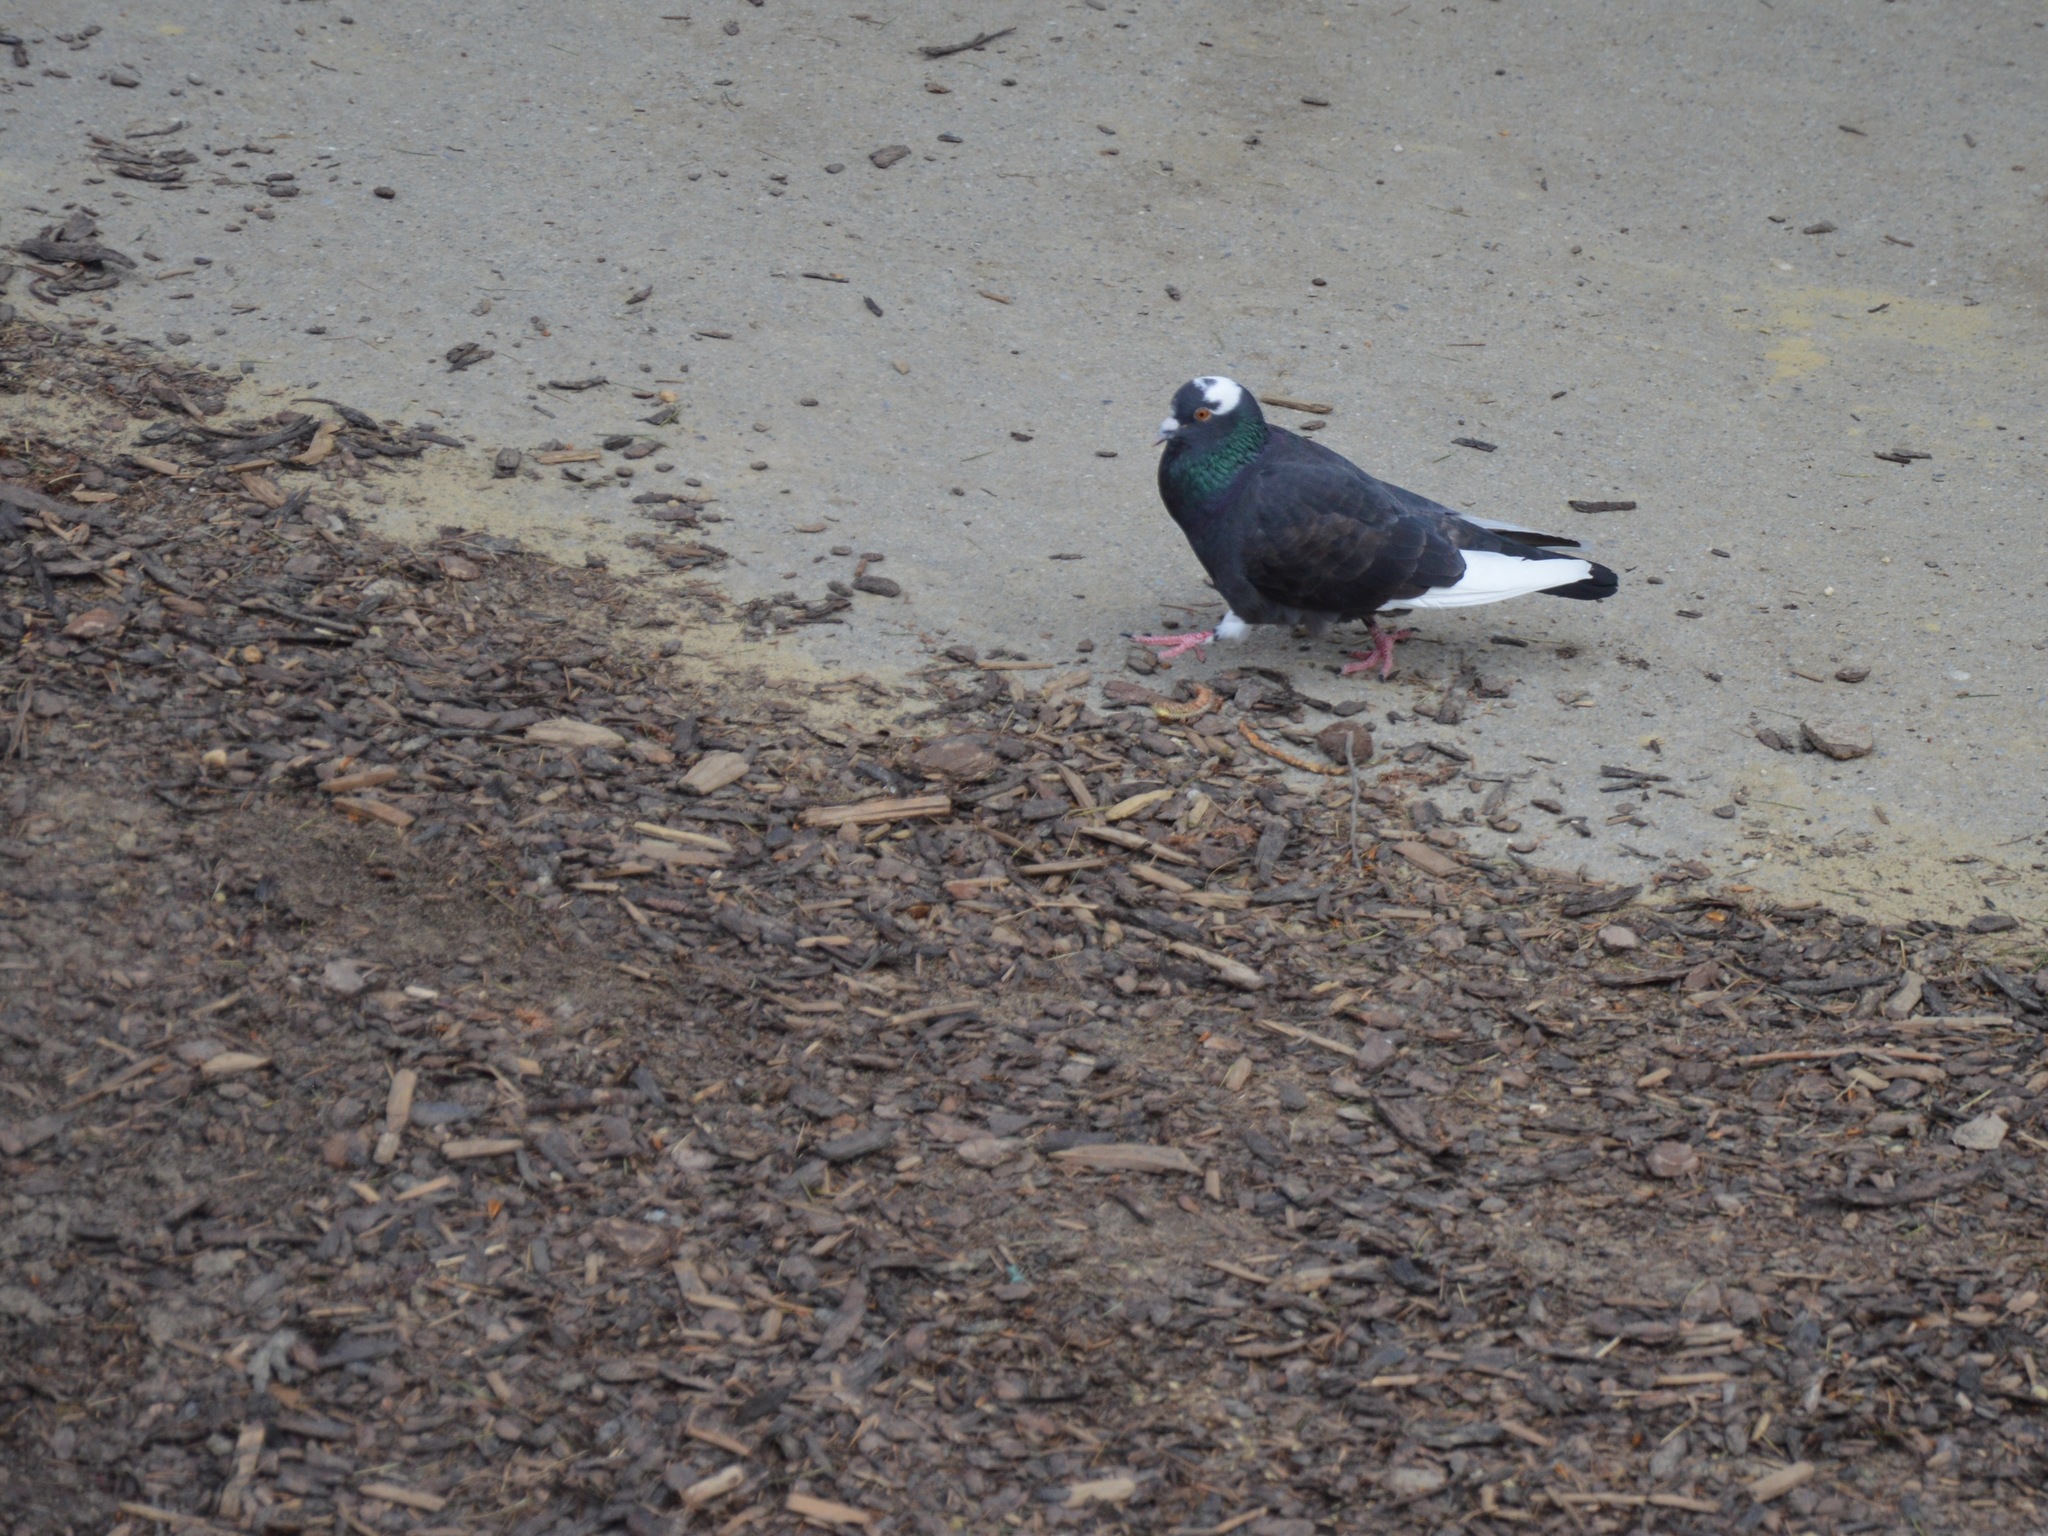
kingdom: Animalia
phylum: Chordata
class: Aves
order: Columbiformes
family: Columbidae
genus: Columba
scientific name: Columba livia
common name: Rock pigeon
